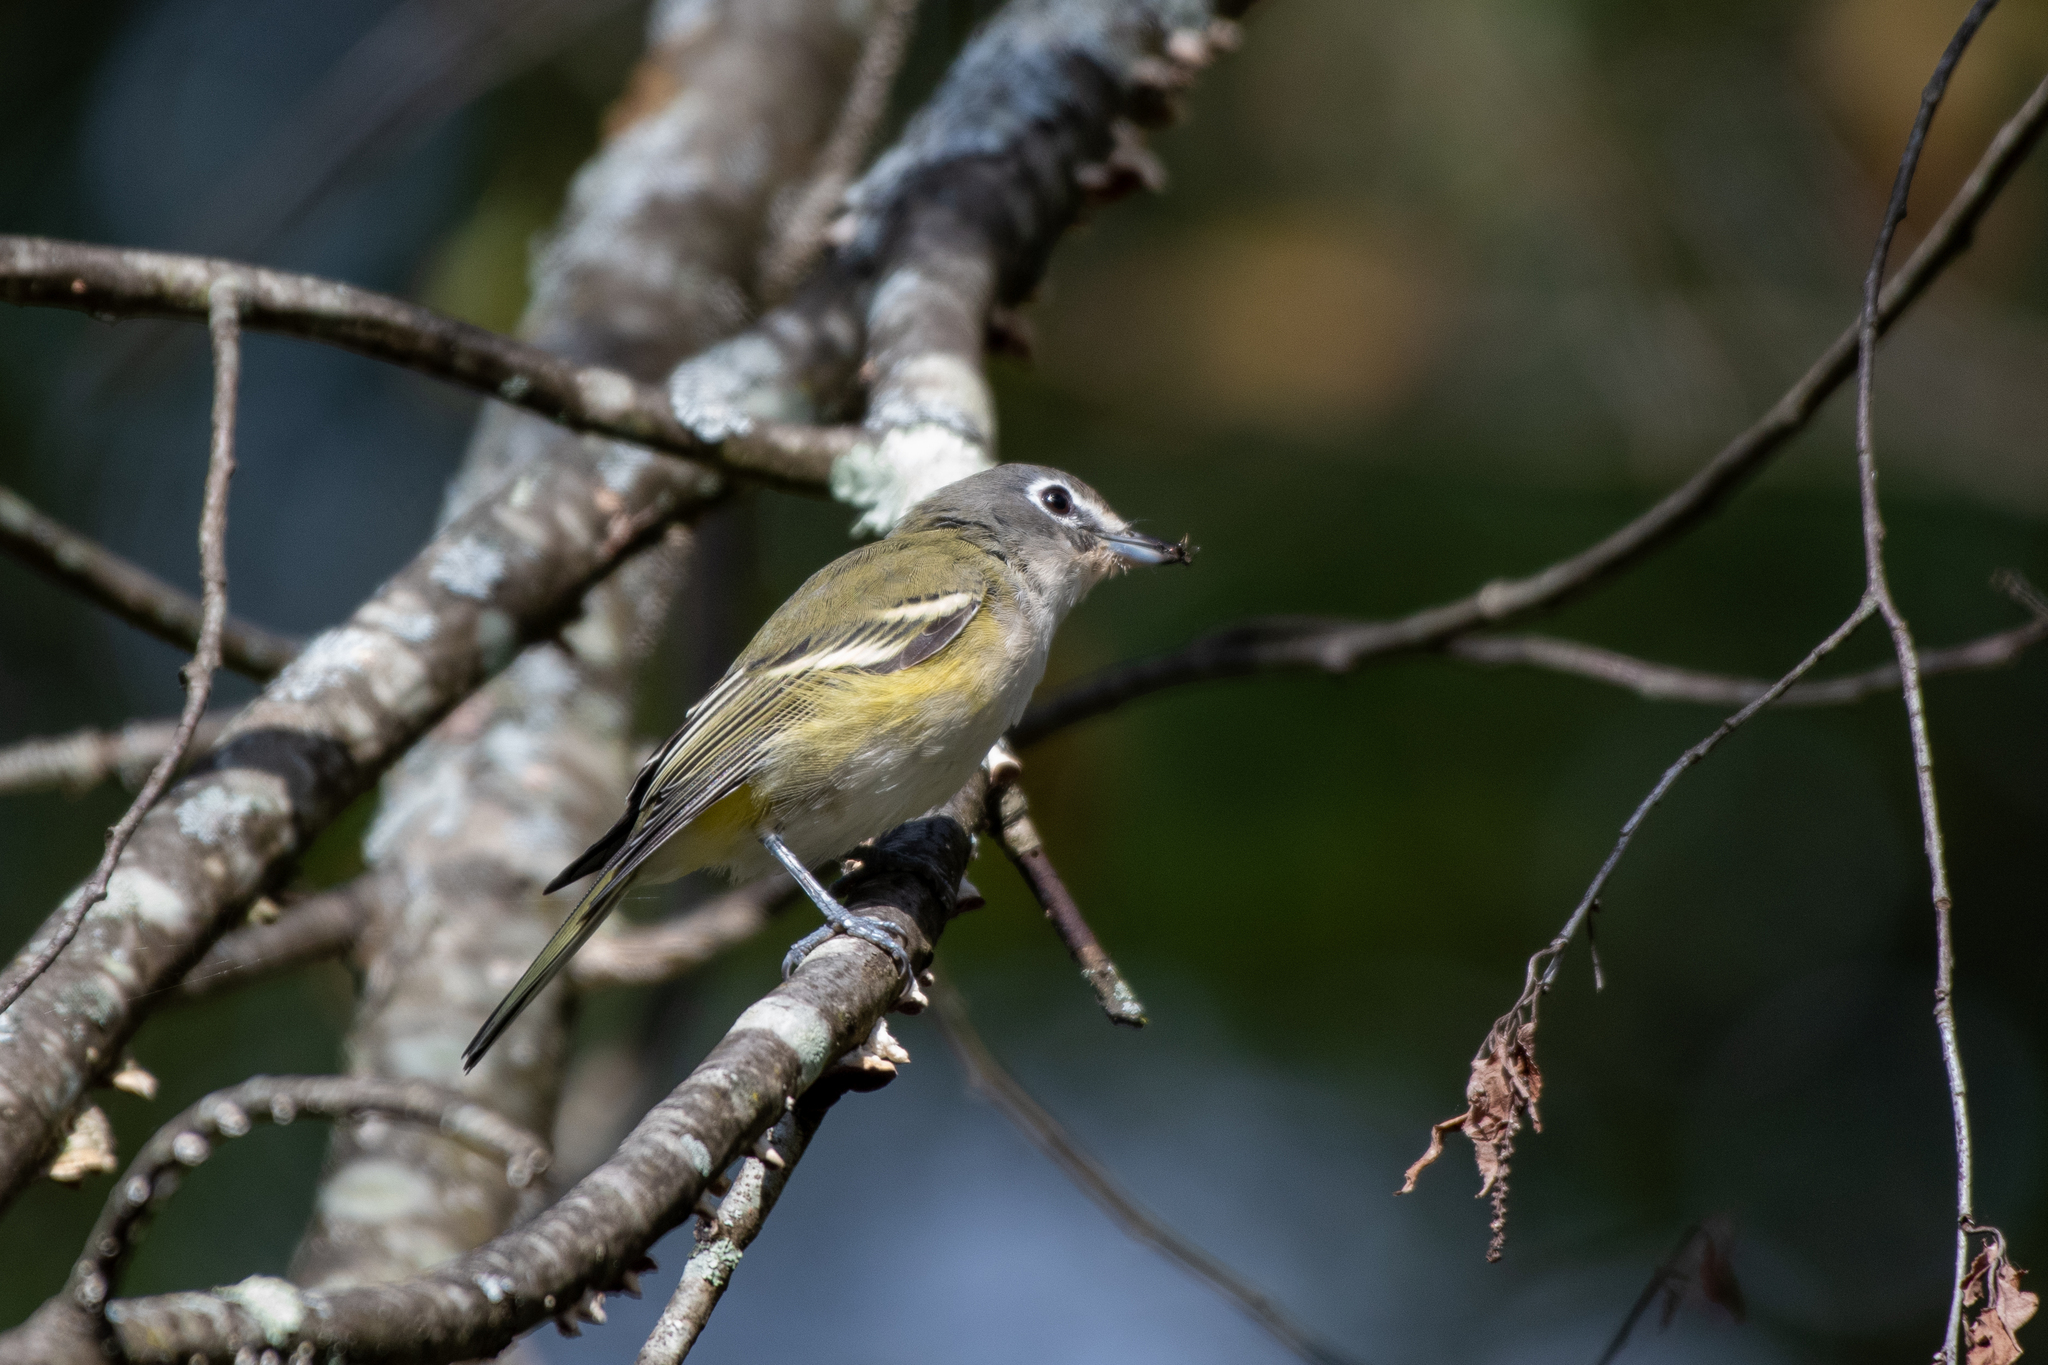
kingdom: Animalia
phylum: Chordata
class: Aves
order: Passeriformes
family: Vireonidae
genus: Vireo
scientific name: Vireo solitarius
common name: Blue-headed vireo
